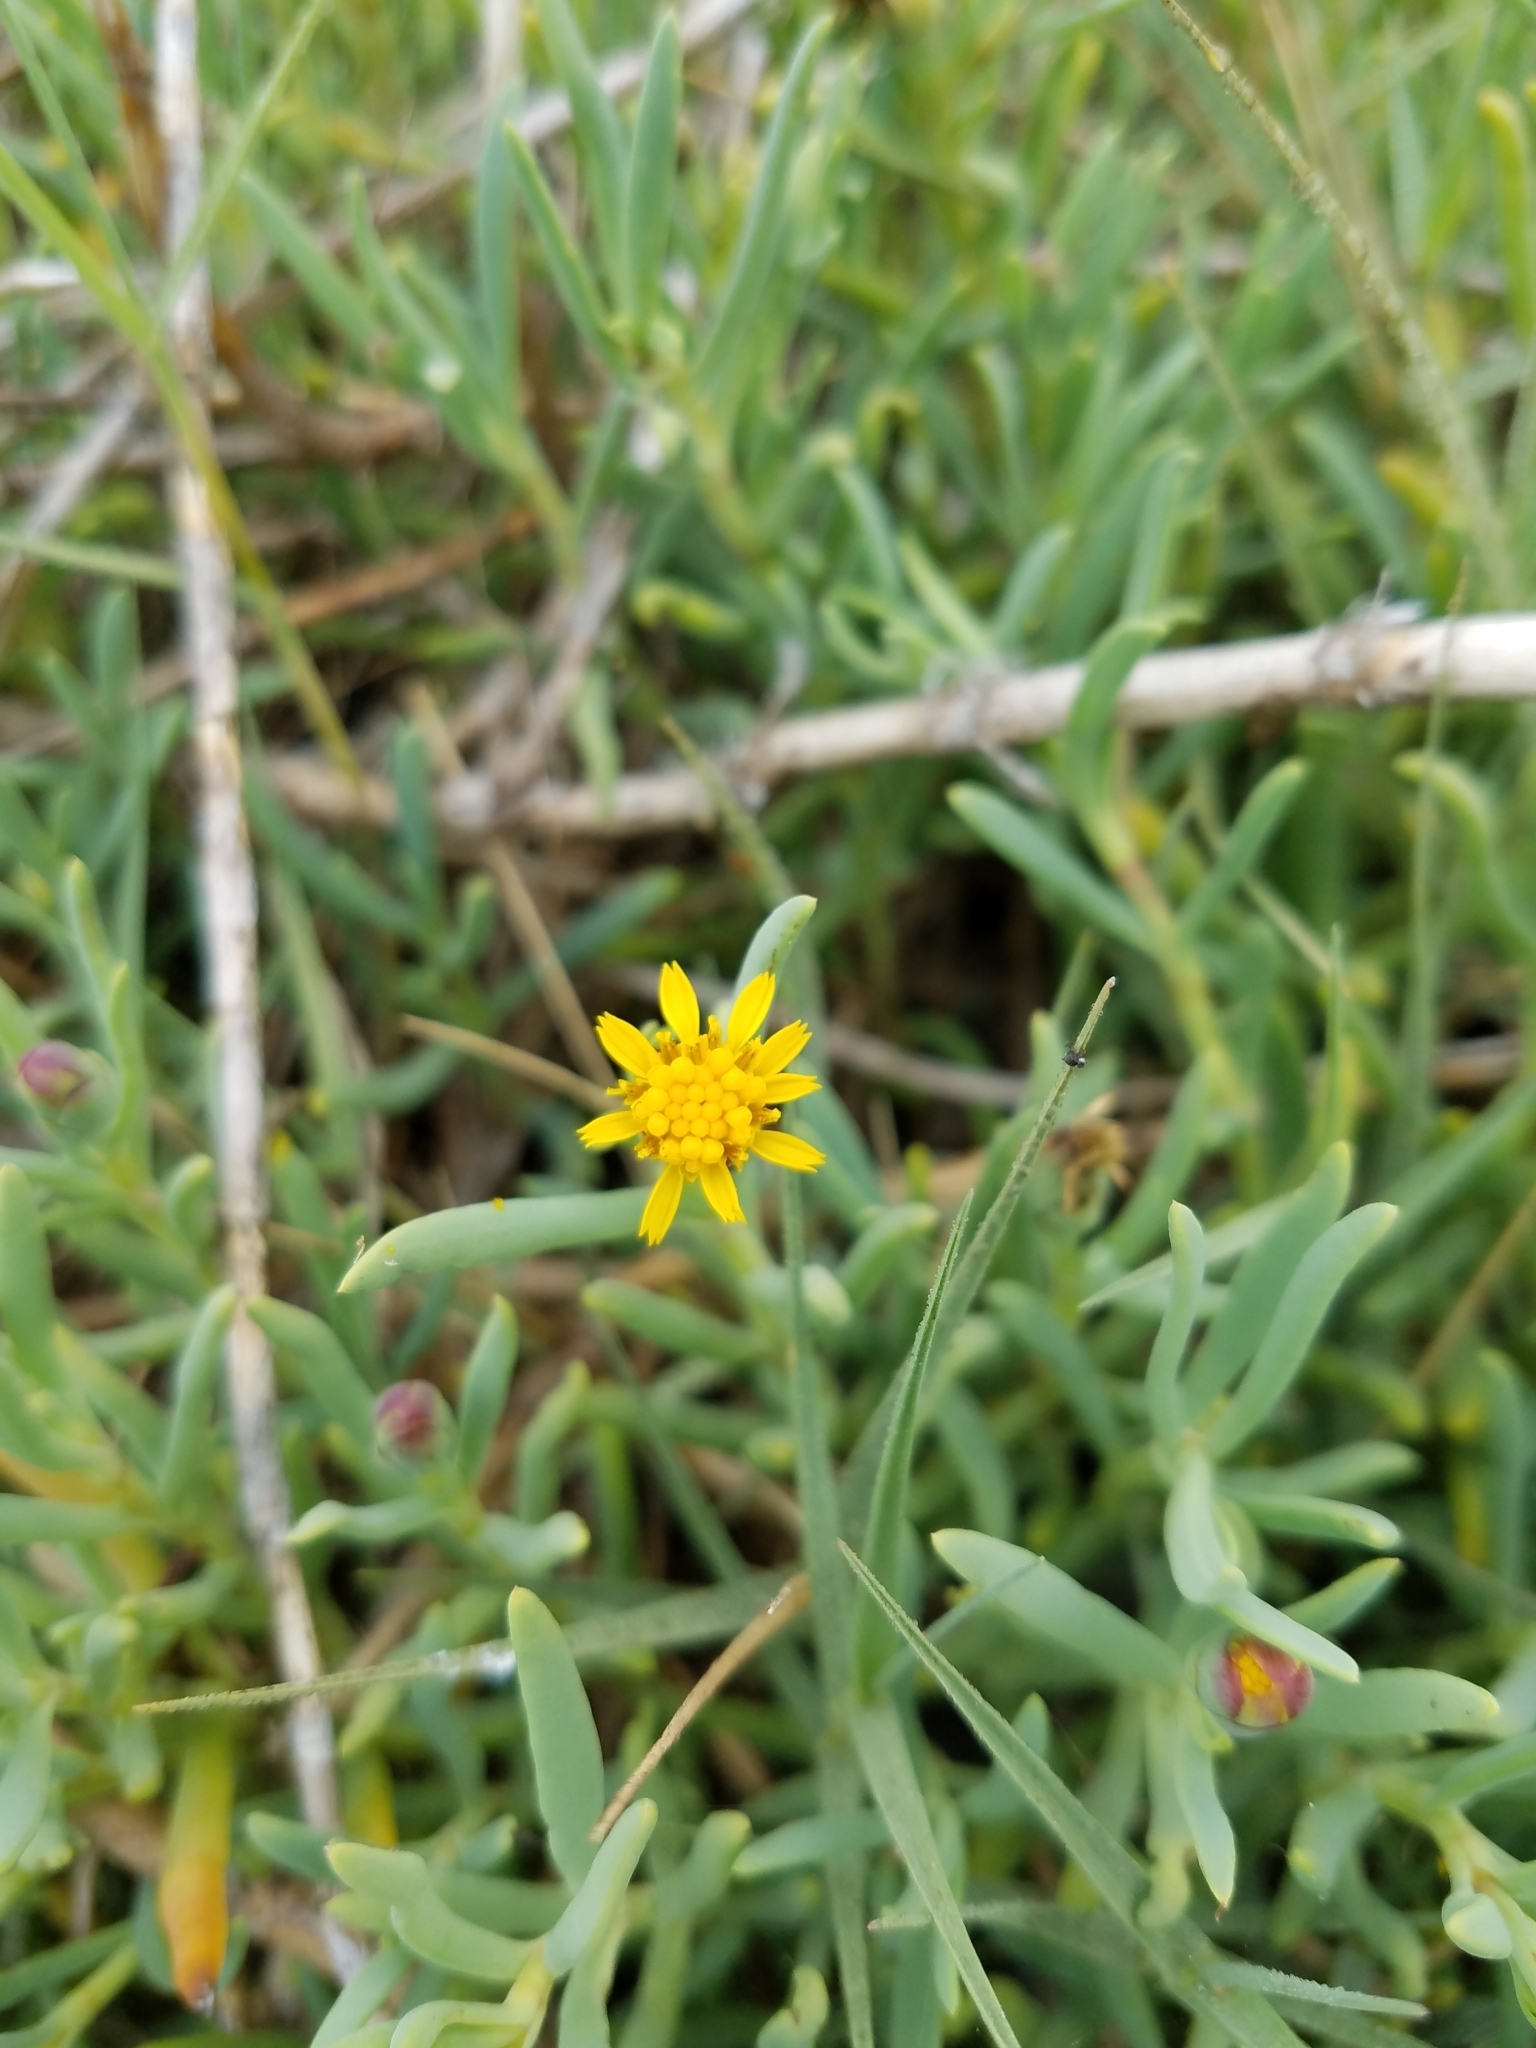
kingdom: Plantae
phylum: Tracheophyta
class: Magnoliopsida
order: Asterales
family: Asteraceae
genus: Jaumea
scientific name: Jaumea carnosa
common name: Fleshy jaumea
